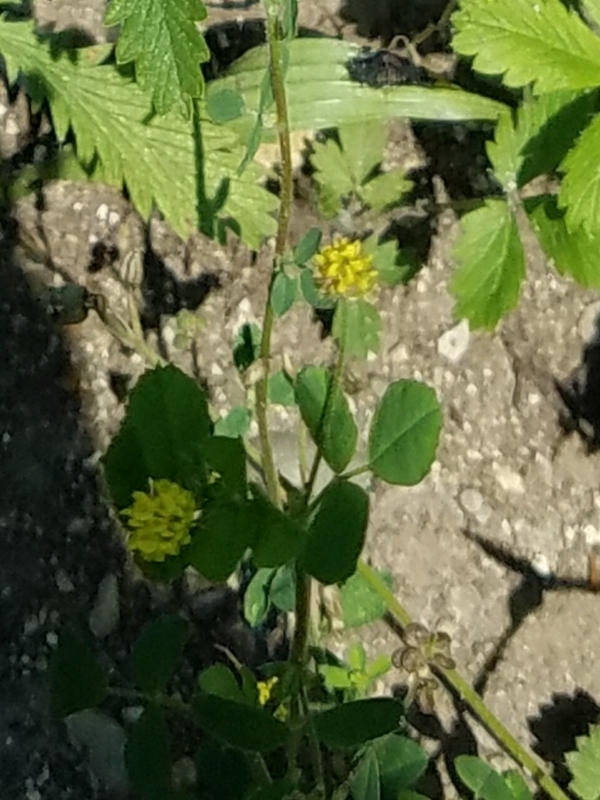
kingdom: Plantae
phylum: Tracheophyta
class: Magnoliopsida
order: Fabales
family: Fabaceae
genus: Medicago
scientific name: Medicago lupulina
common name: Black medick
